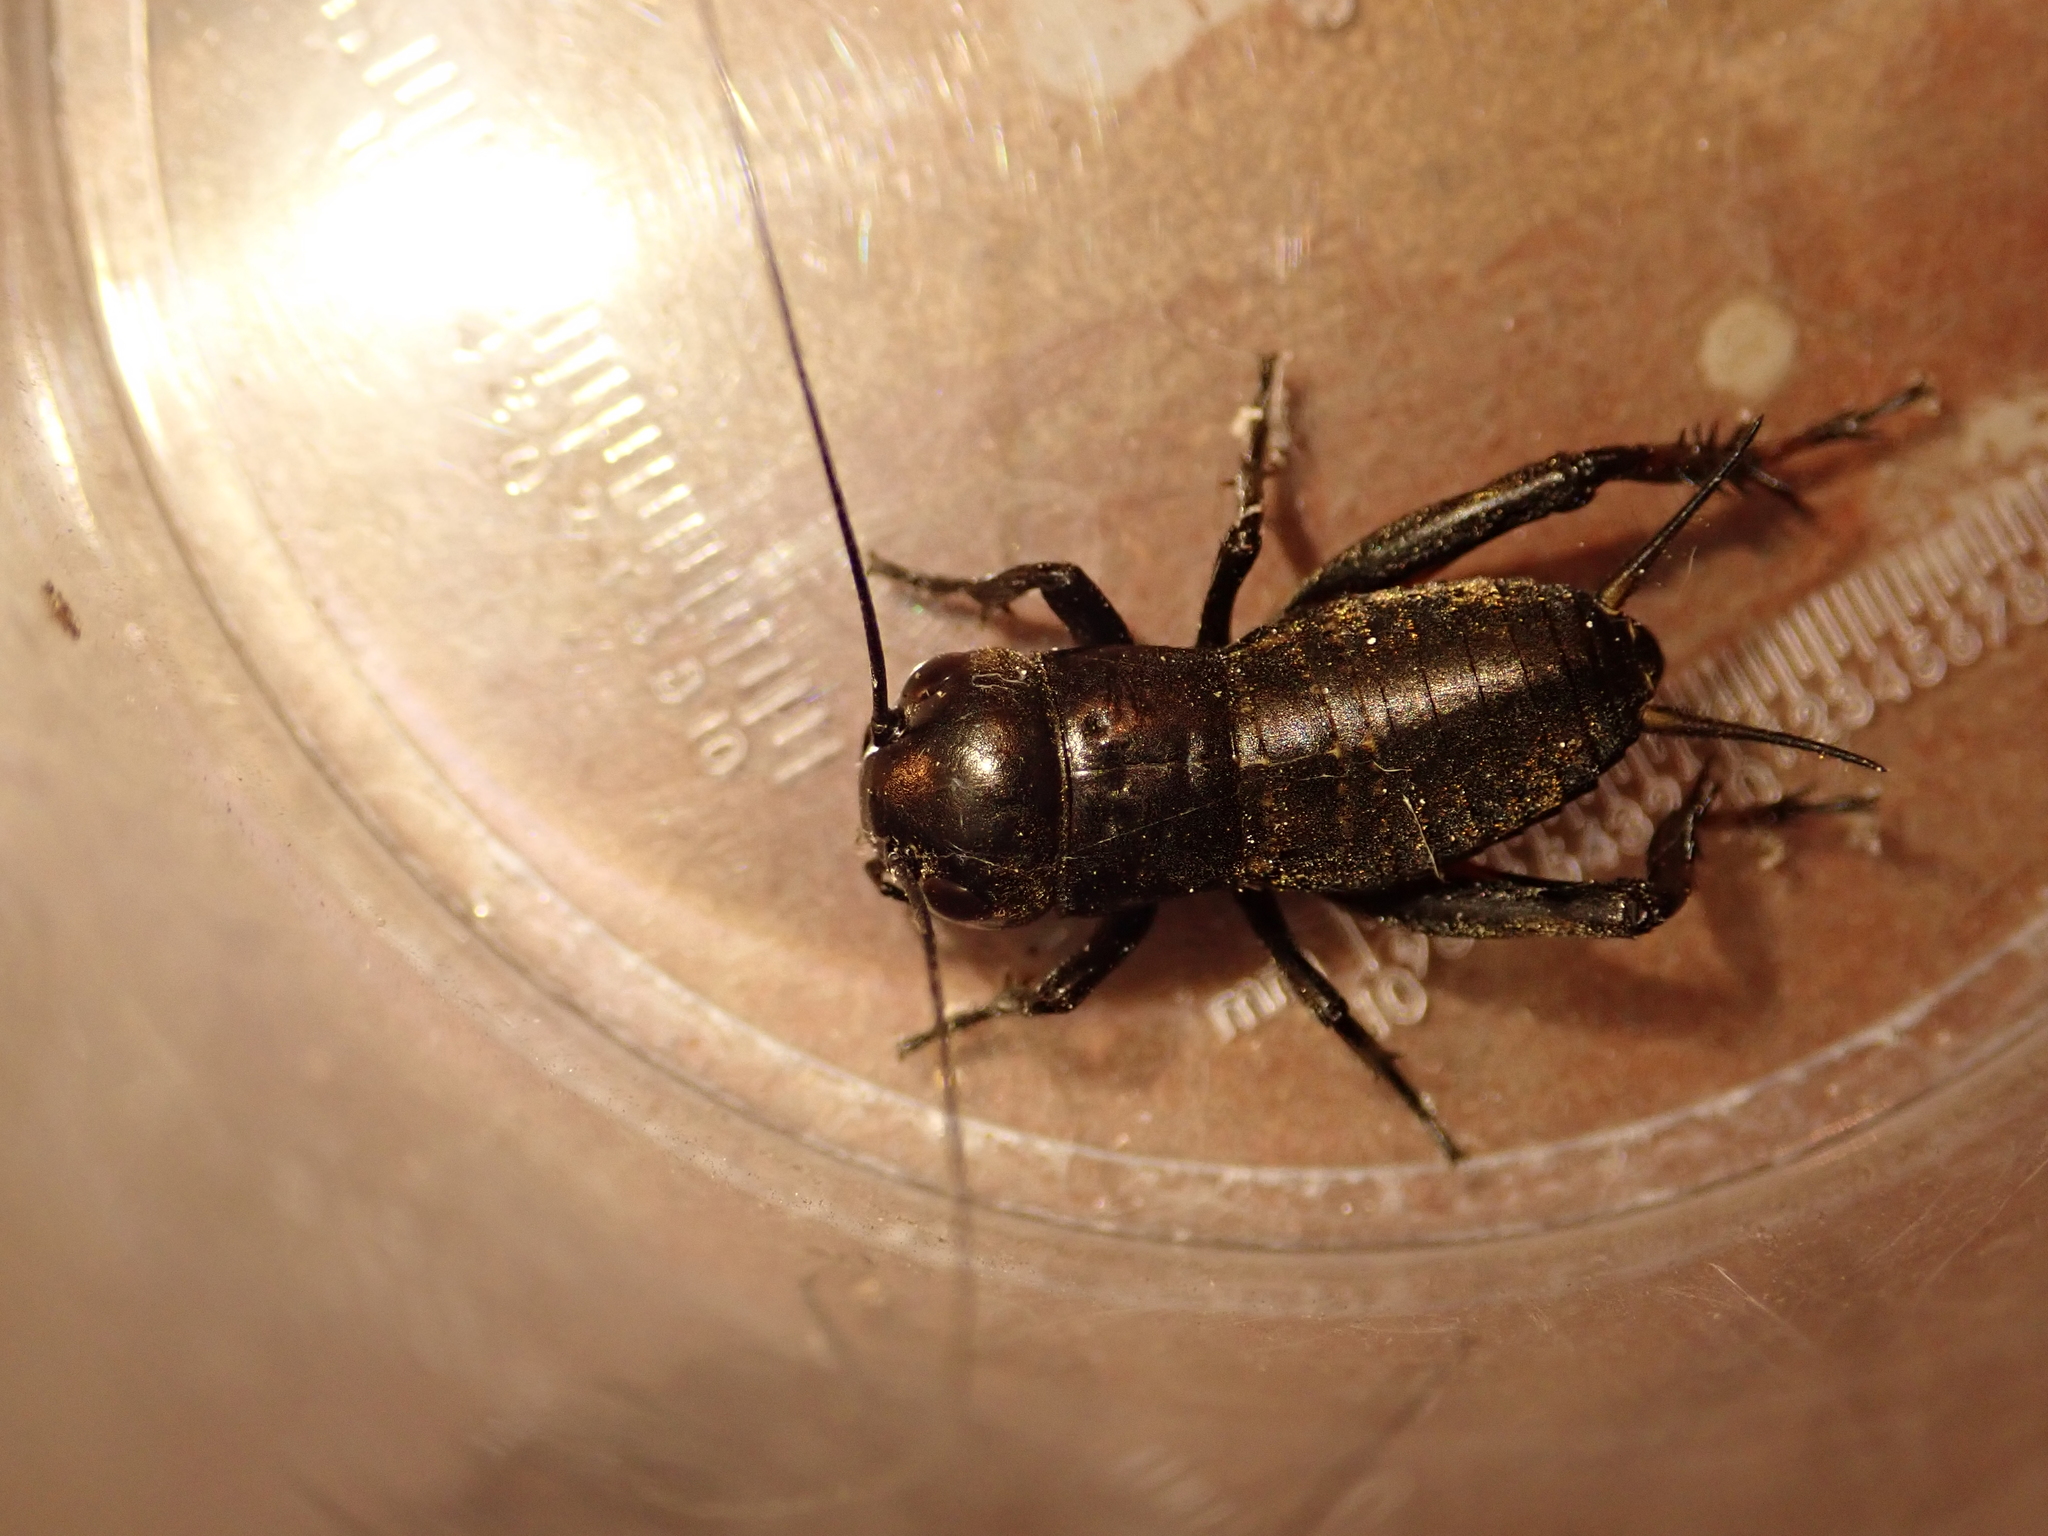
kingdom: Animalia
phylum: Arthropoda
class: Insecta
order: Orthoptera
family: Gryllidae
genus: Gryllus
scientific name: Gryllus campestris
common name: Field cricket
